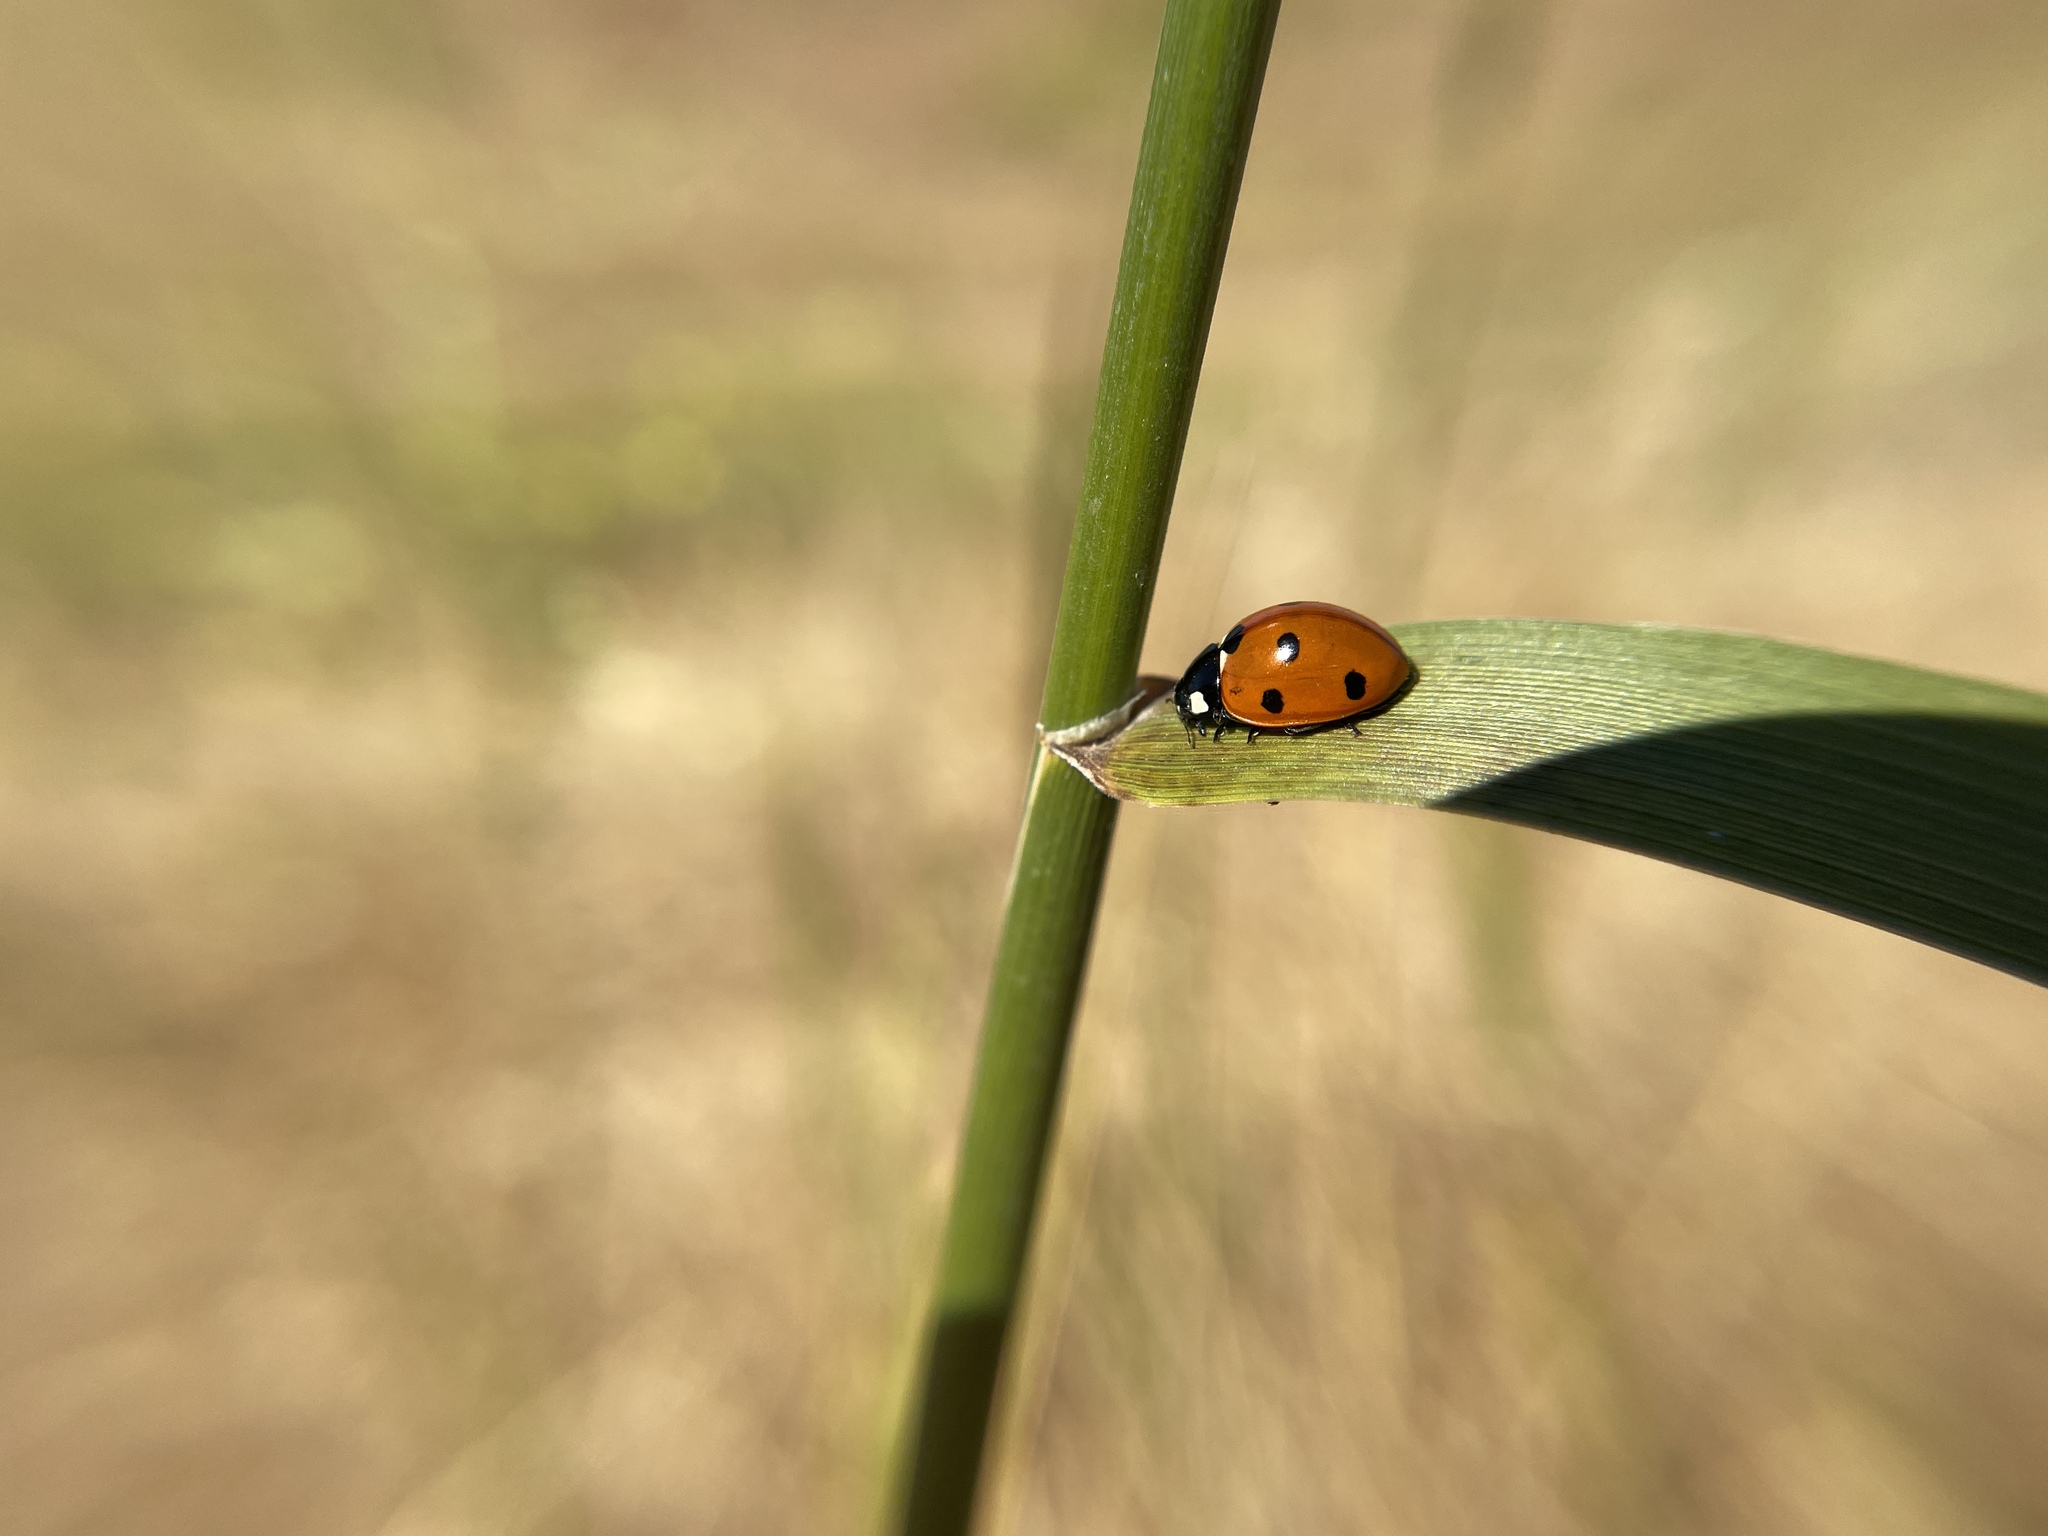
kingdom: Animalia
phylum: Arthropoda
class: Insecta
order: Coleoptera
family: Coccinellidae
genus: Coccinella
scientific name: Coccinella septempunctata
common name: Sevenspotted lady beetle
